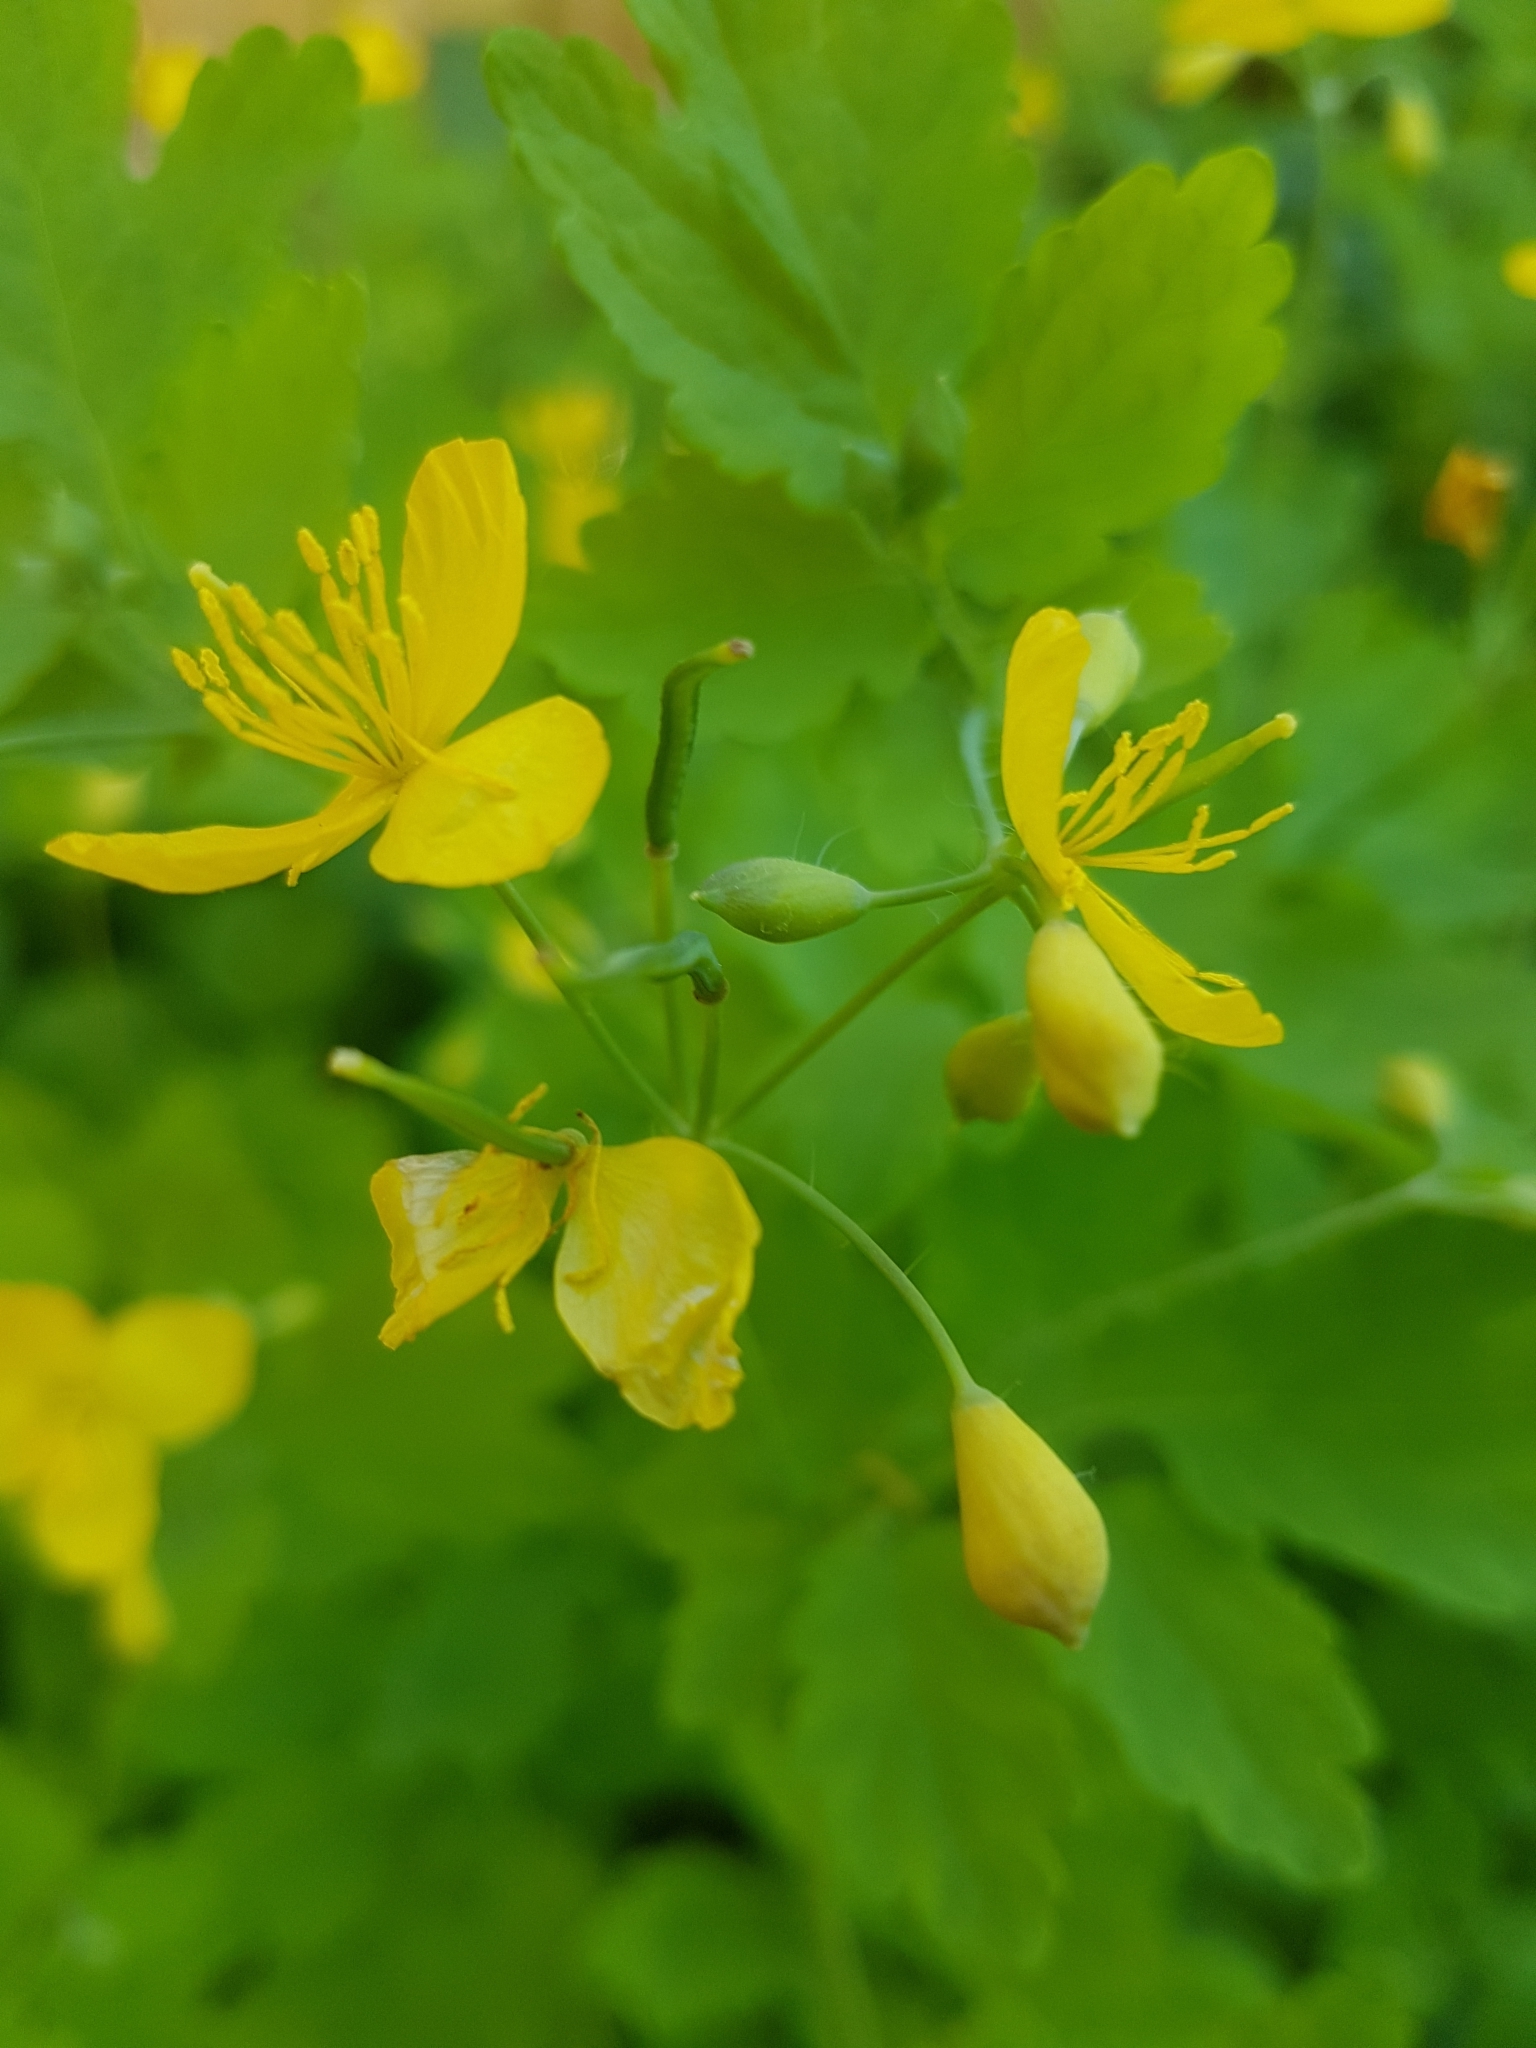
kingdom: Plantae
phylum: Tracheophyta
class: Magnoliopsida
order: Ranunculales
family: Papaveraceae
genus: Chelidonium
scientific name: Chelidonium majus
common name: Greater celandine
